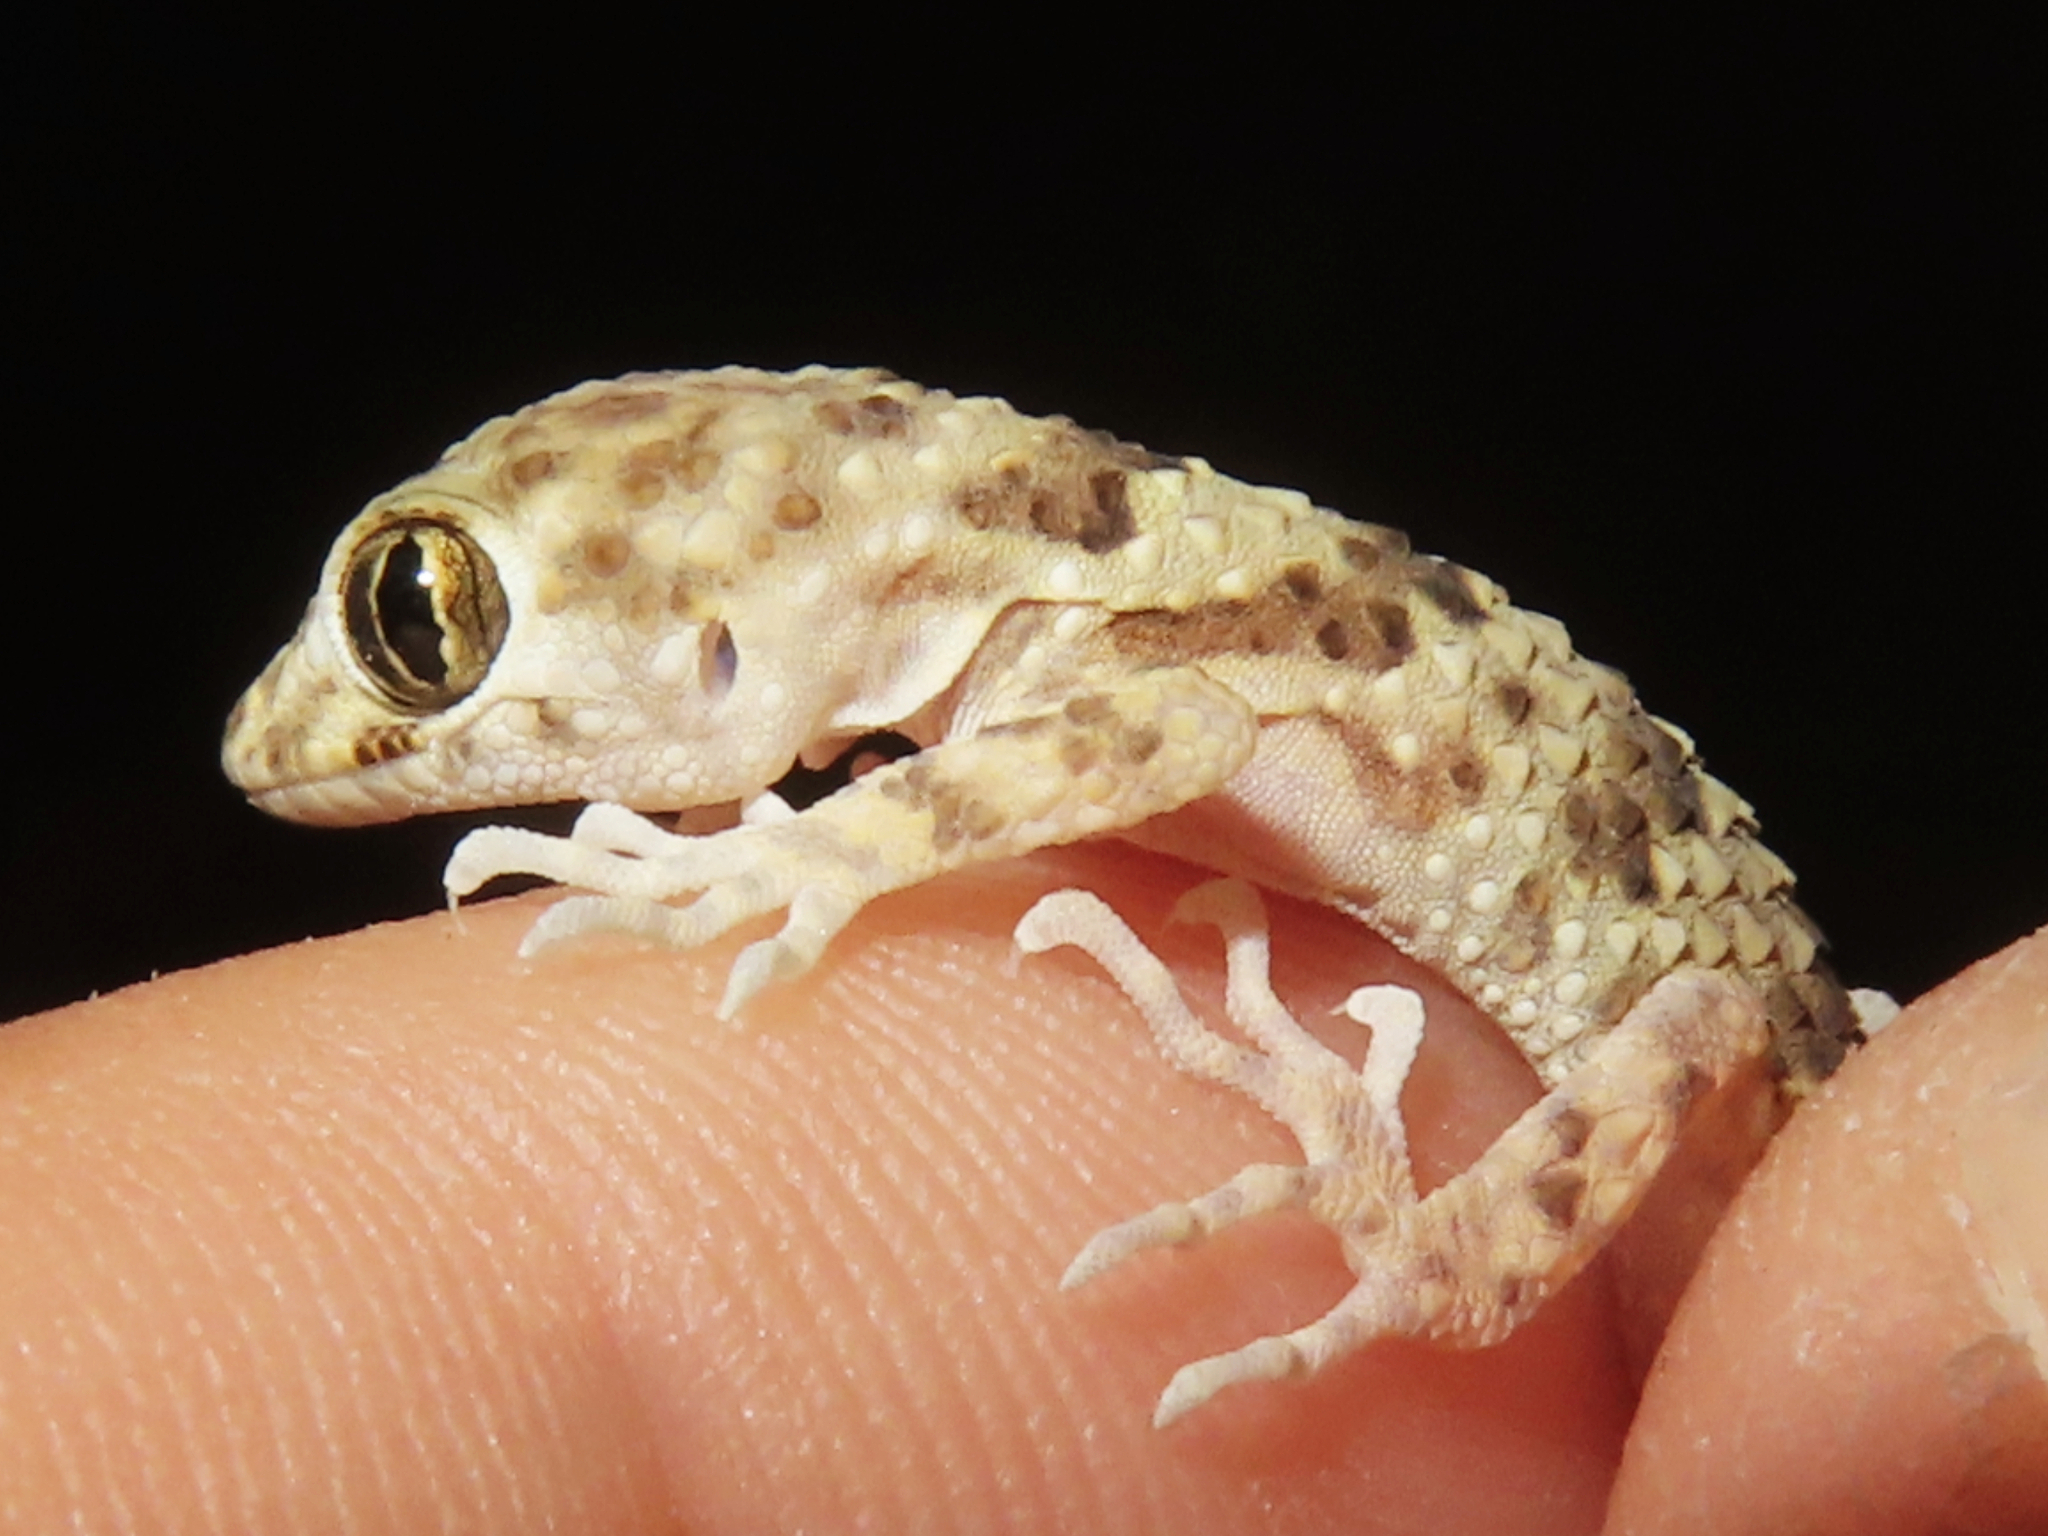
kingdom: Animalia
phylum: Chordata
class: Squamata
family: Gekkonidae
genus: Tenuidactylus
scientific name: Tenuidactylus caspius
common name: Caspian bent-toed gecko
